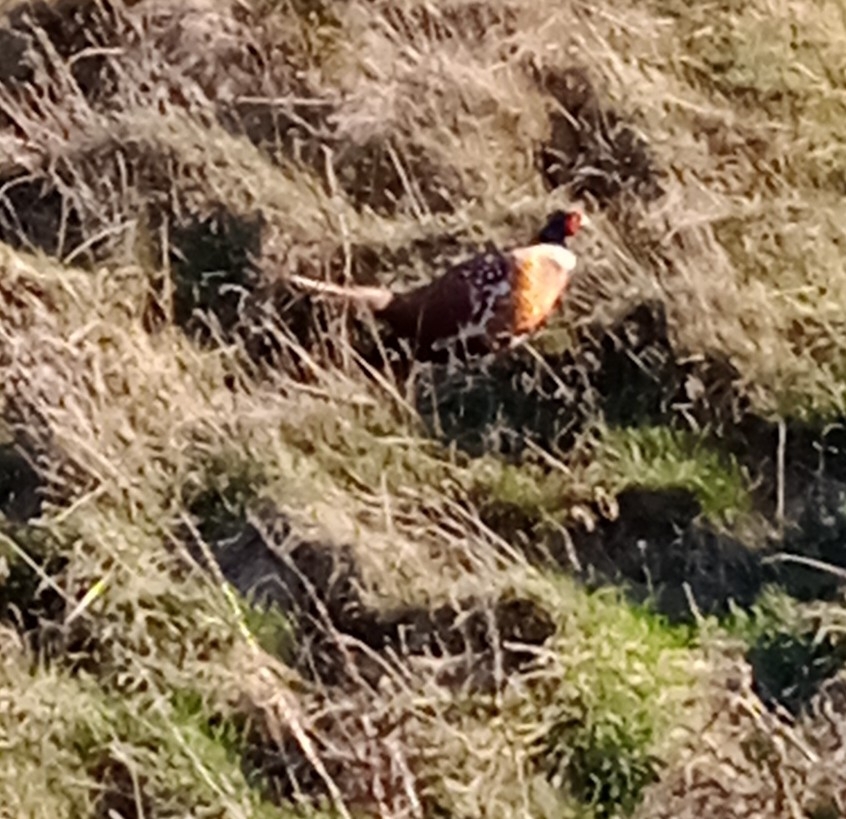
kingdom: Animalia
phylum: Chordata
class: Aves
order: Galliformes
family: Phasianidae
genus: Phasianus
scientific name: Phasianus colchicus
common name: Common pheasant
